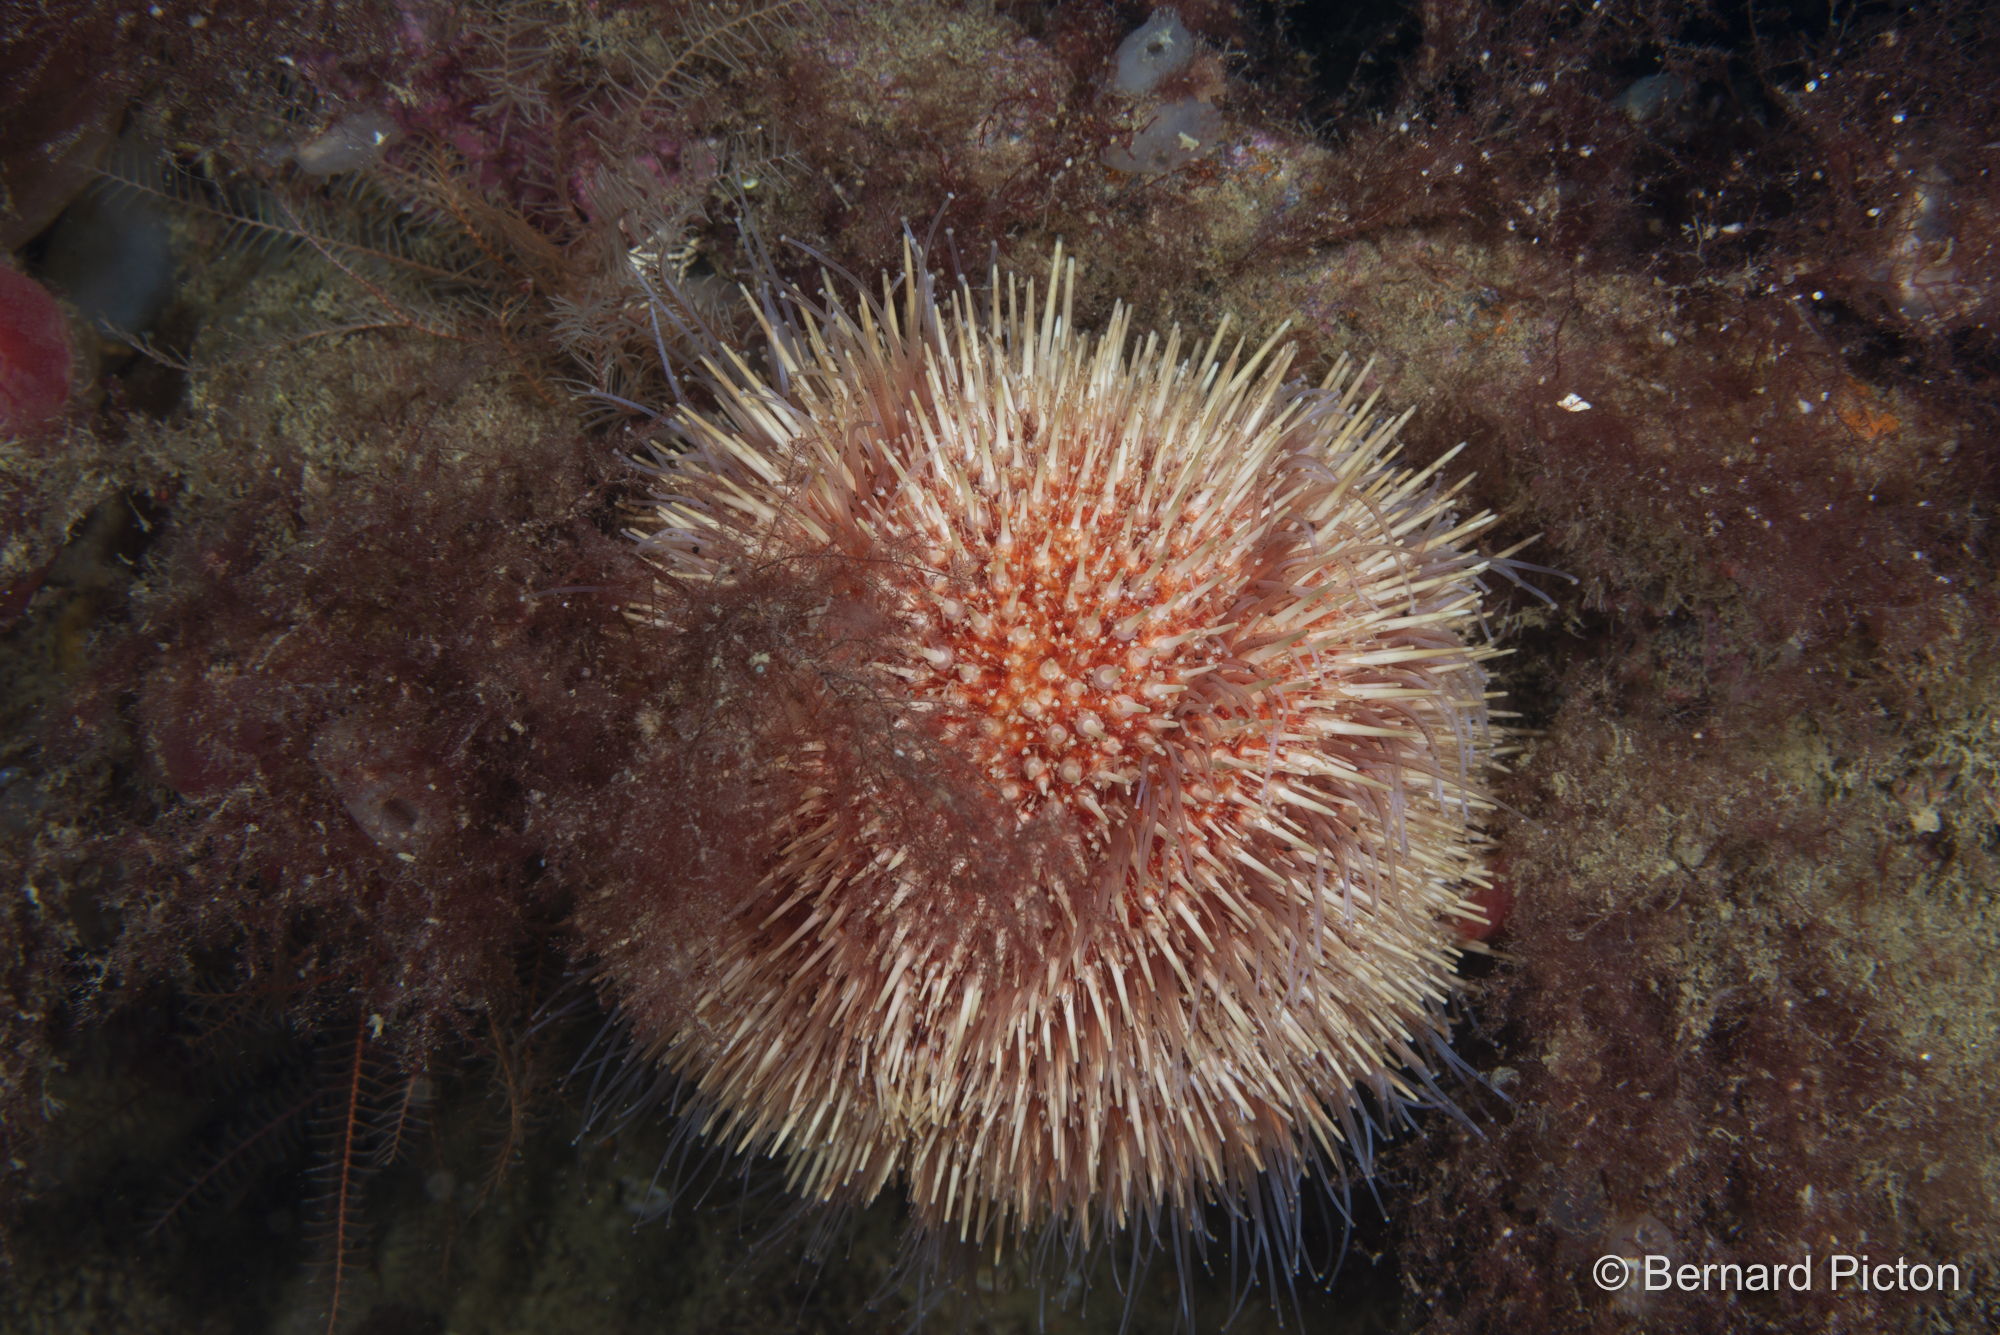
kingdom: Animalia
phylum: Echinodermata
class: Echinoidea
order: Camarodonta
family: Echinidae
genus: Echinus
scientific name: Echinus esculentus
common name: Edible sea urchin
